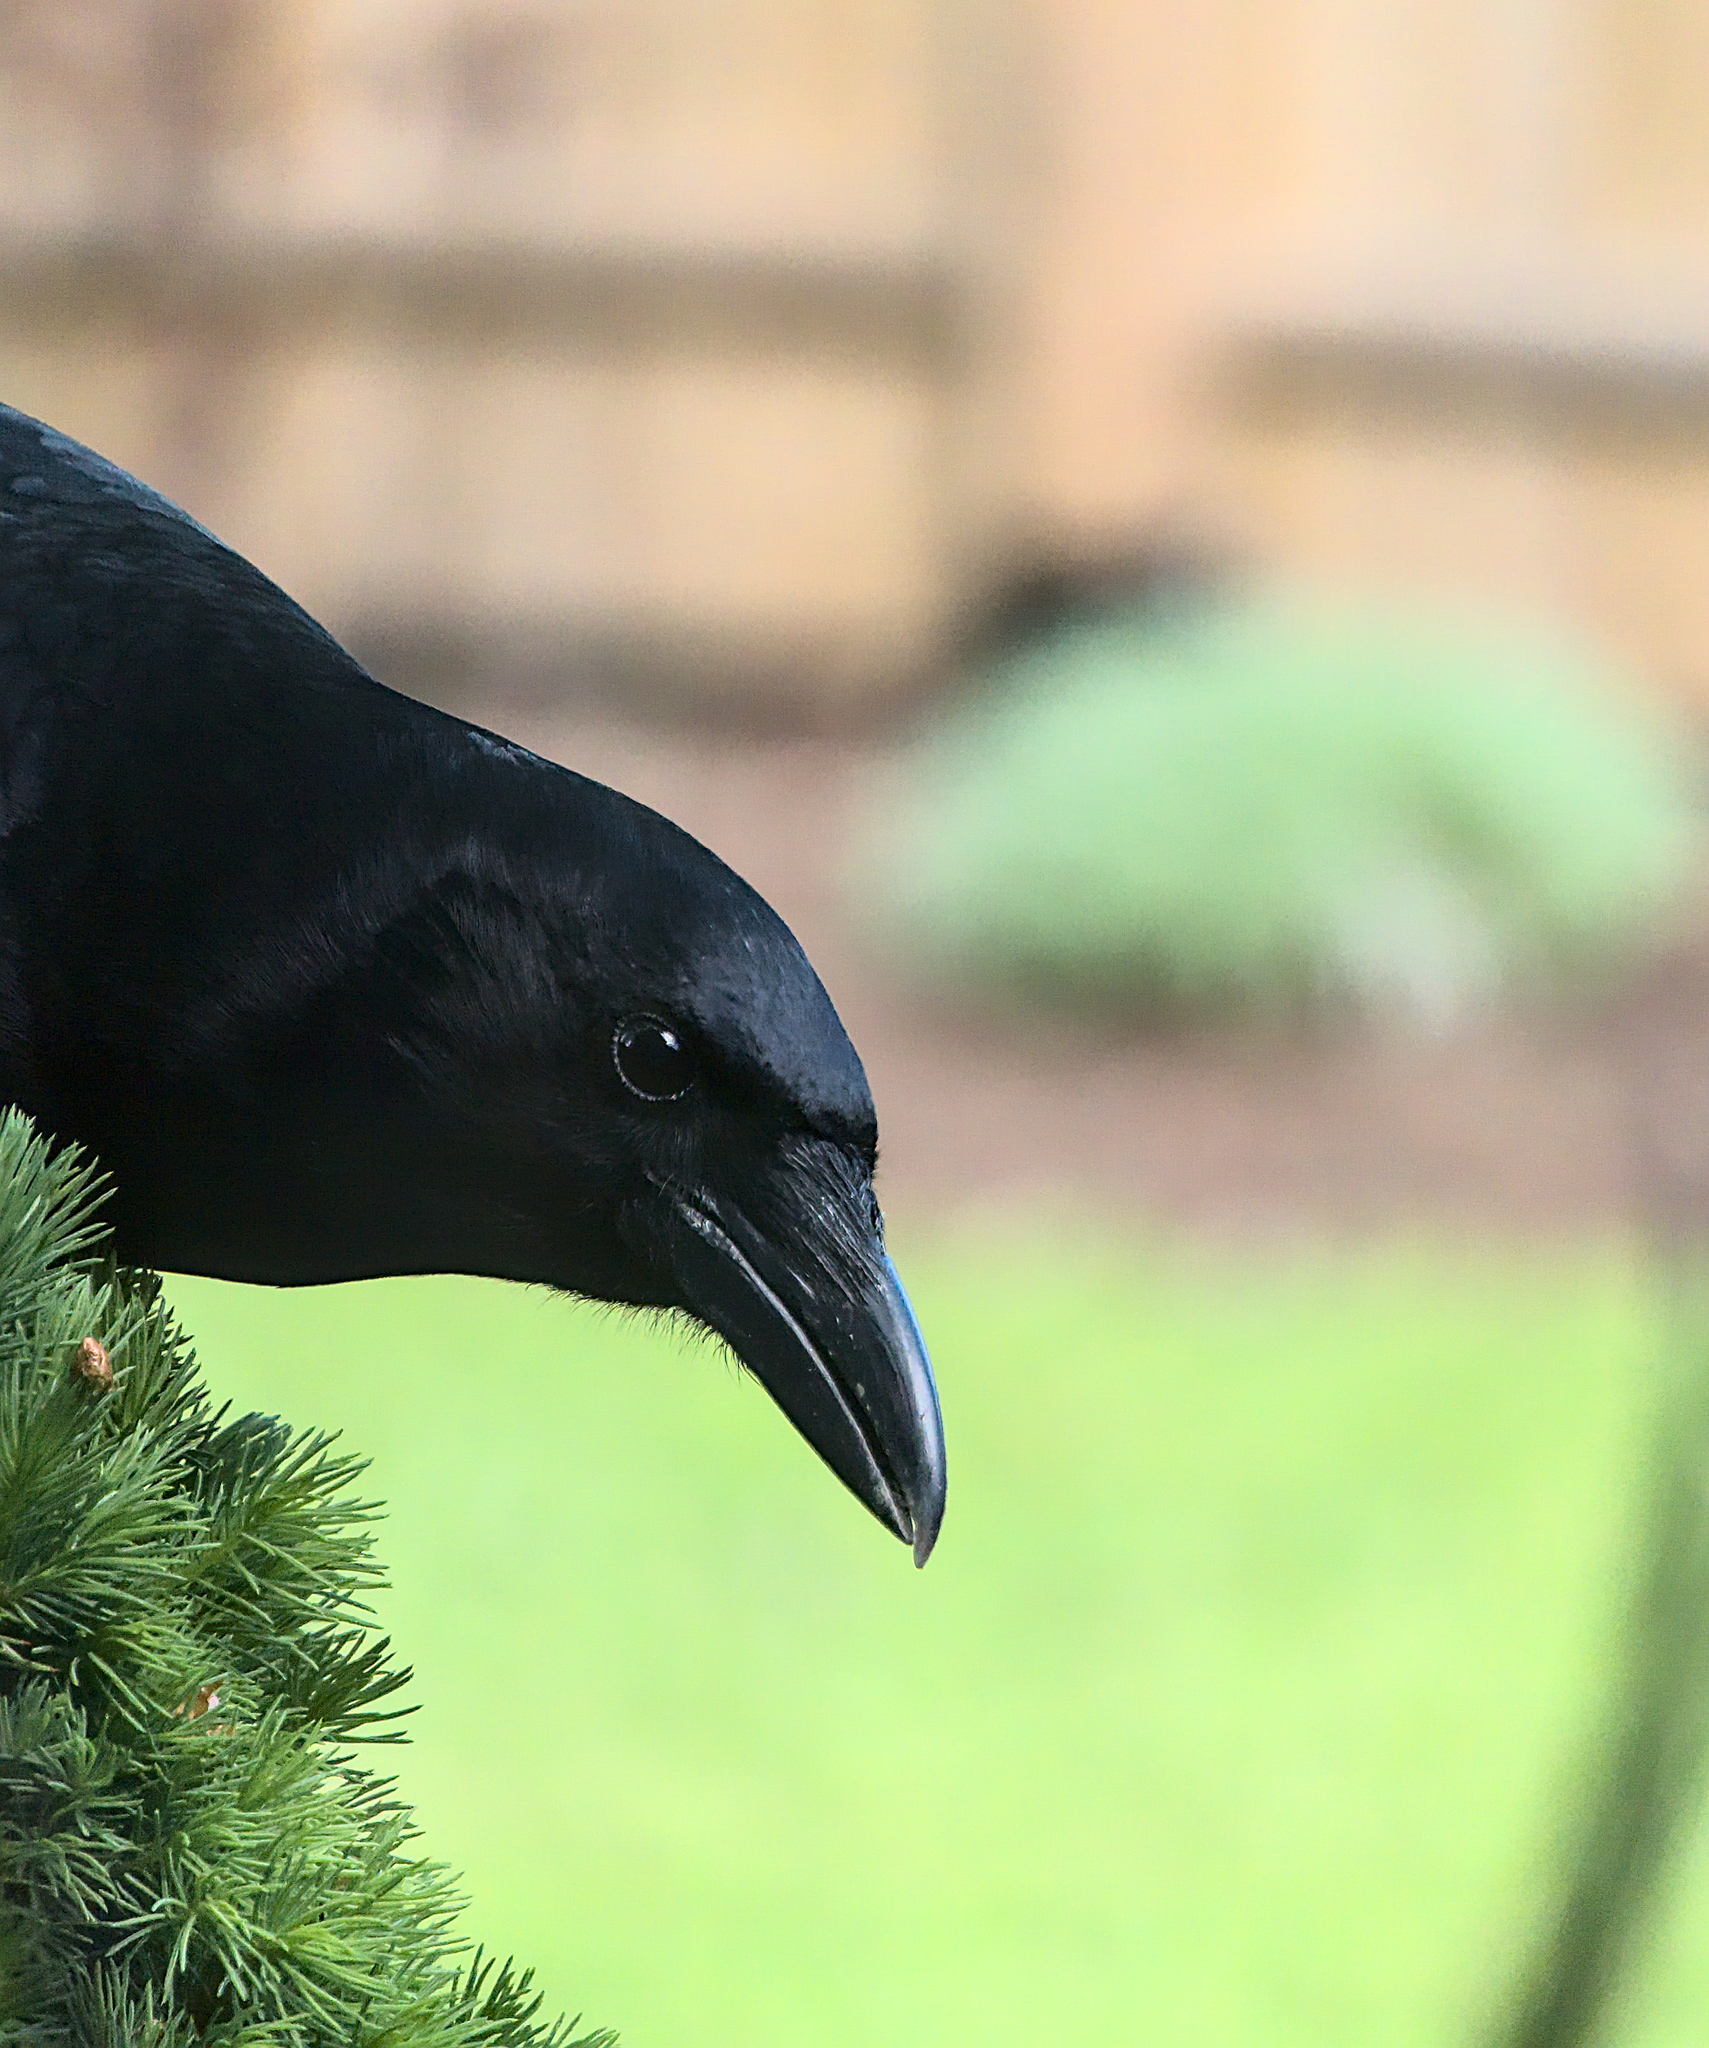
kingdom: Animalia
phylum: Chordata
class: Aves
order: Passeriformes
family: Corvidae
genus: Corvus
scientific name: Corvus brachyrhynchos
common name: American crow
